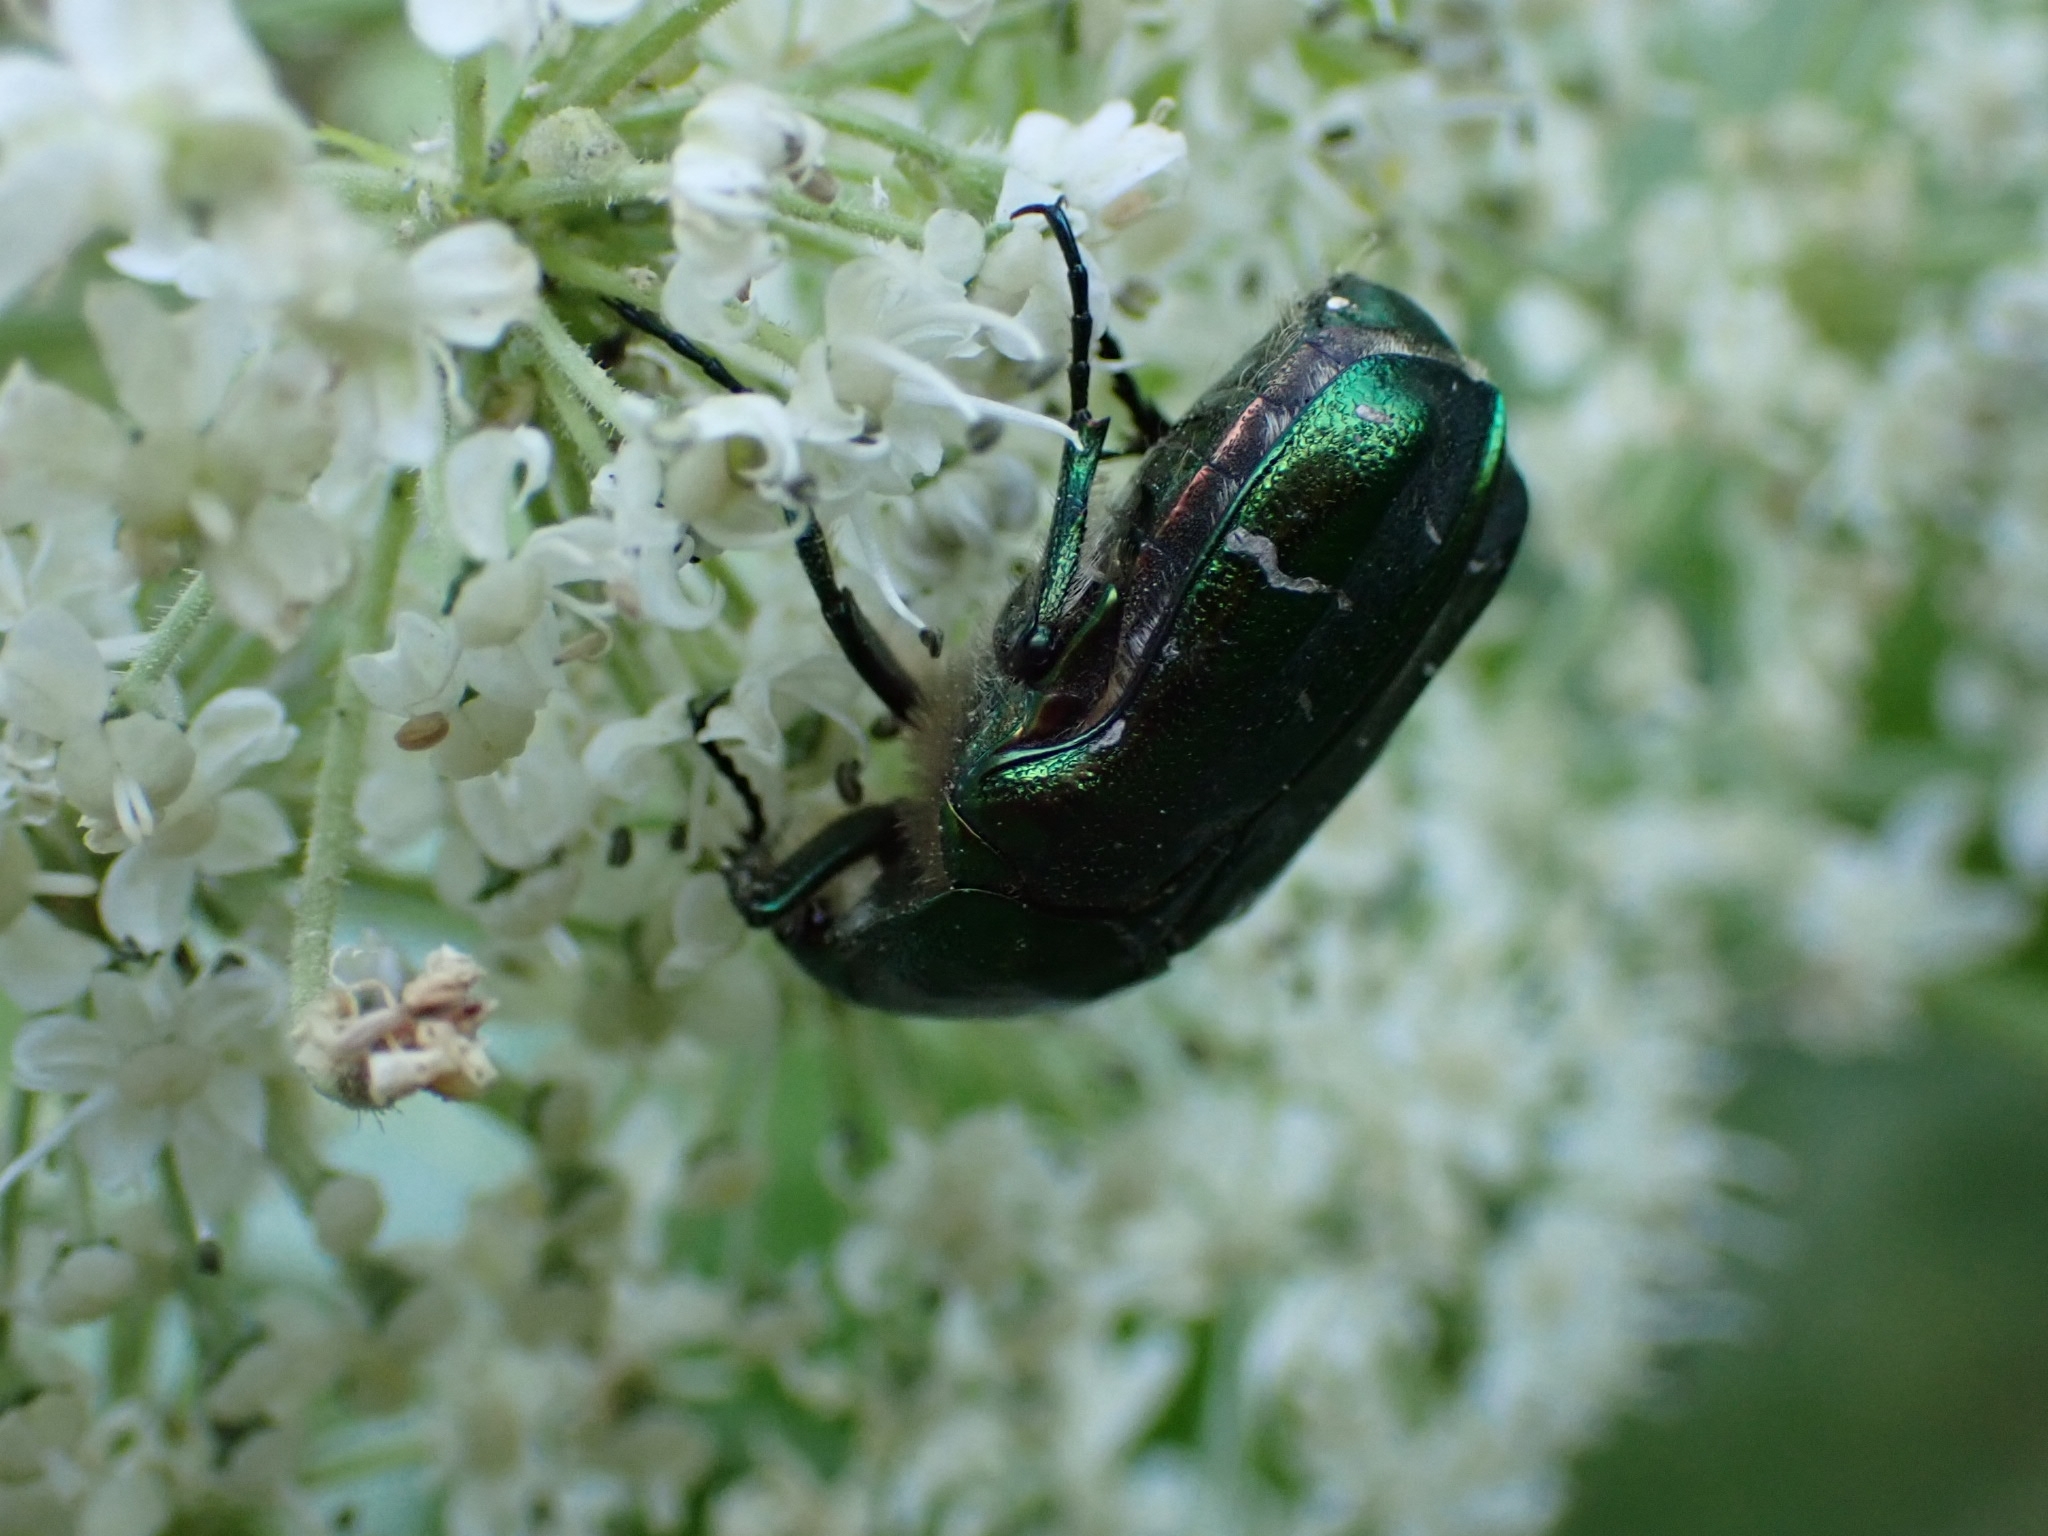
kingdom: Animalia
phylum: Arthropoda
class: Insecta
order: Coleoptera
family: Scarabaeidae
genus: Cetonia
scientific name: Cetonia aurata
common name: Rose chafer
